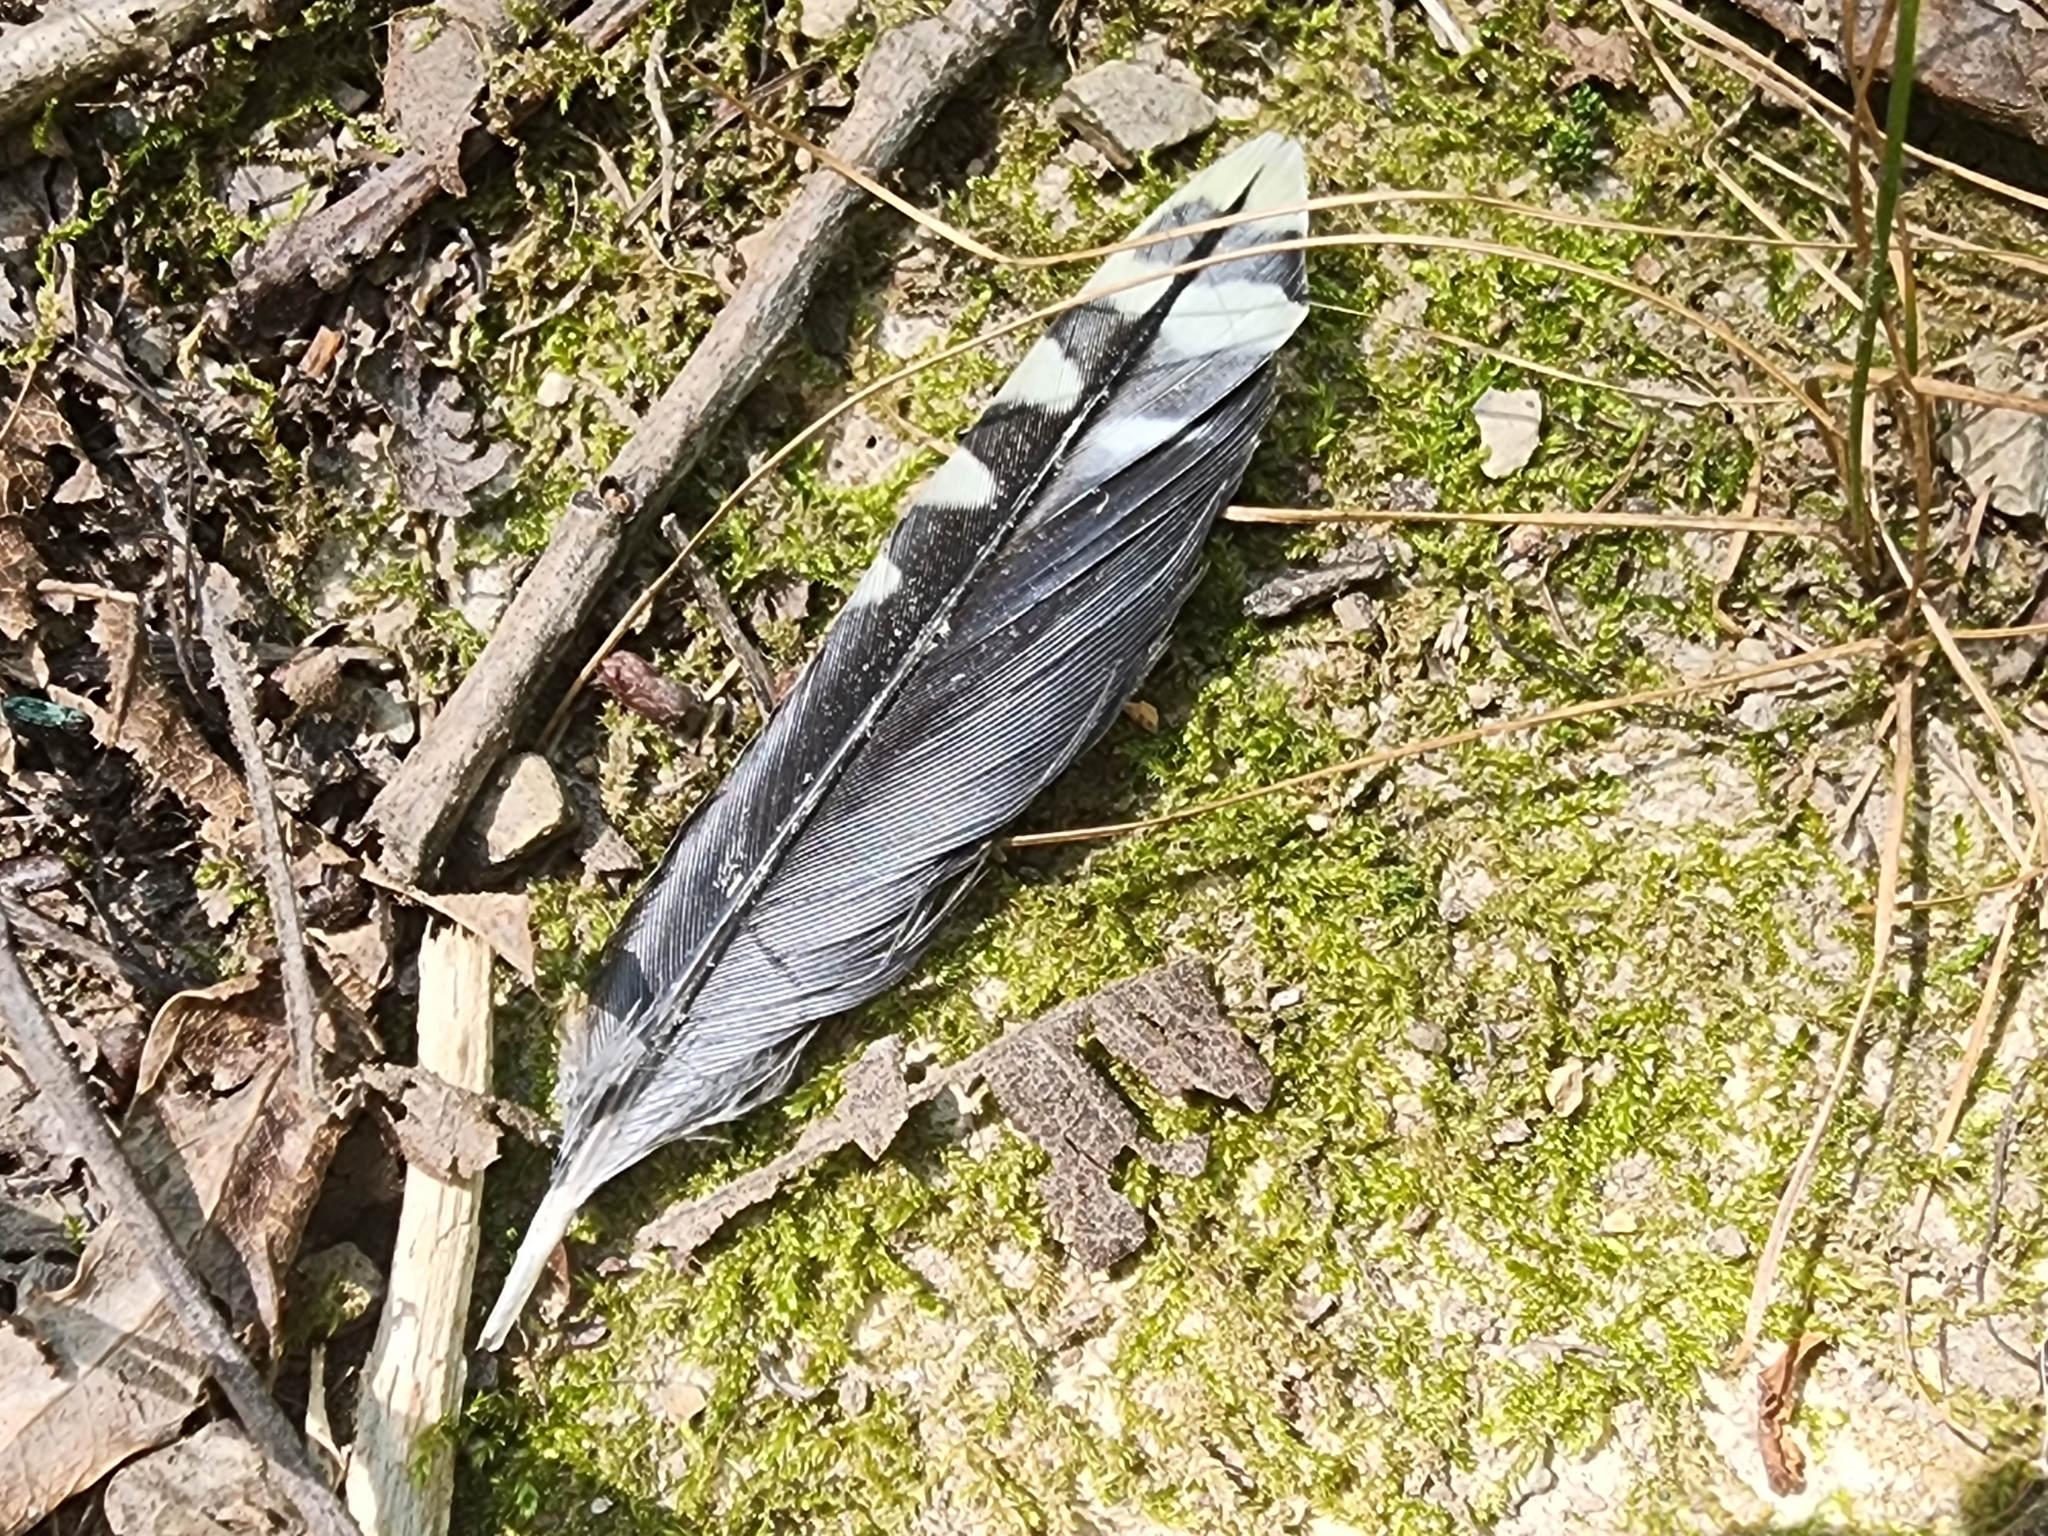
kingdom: Animalia
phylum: Chordata
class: Aves
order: Piciformes
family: Picidae
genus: Melanerpes
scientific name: Melanerpes carolinus
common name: Red-bellied woodpecker
